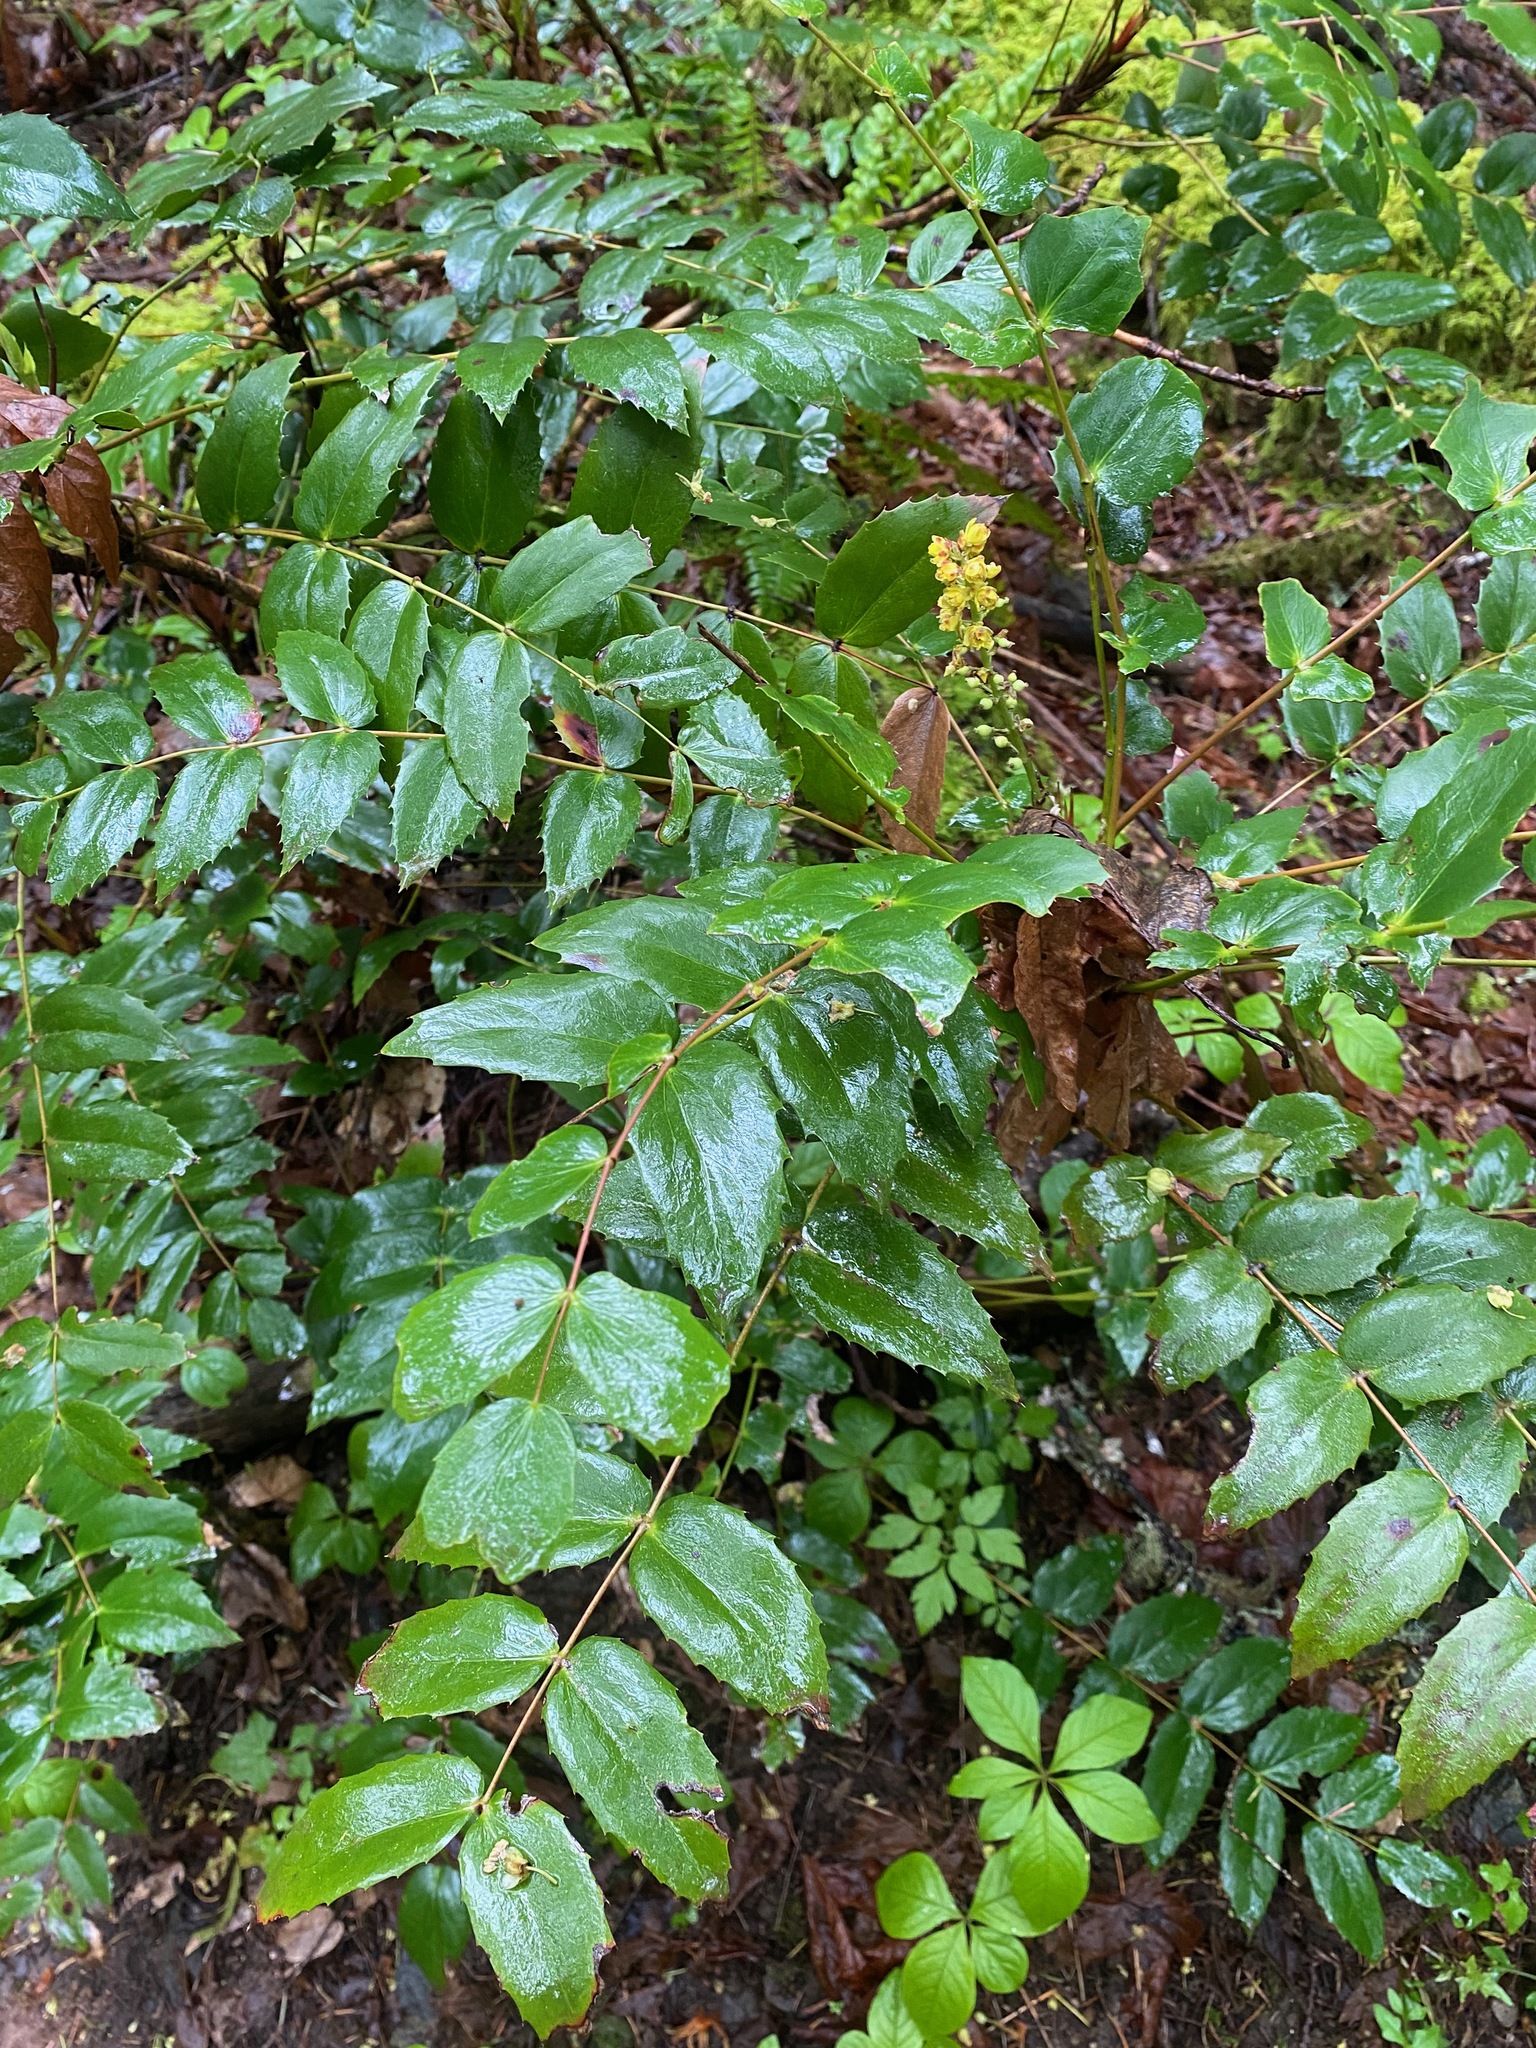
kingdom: Plantae
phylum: Tracheophyta
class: Magnoliopsida
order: Ranunculales
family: Berberidaceae
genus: Mahonia
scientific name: Mahonia nervosa
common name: Cascade oregon-grape
